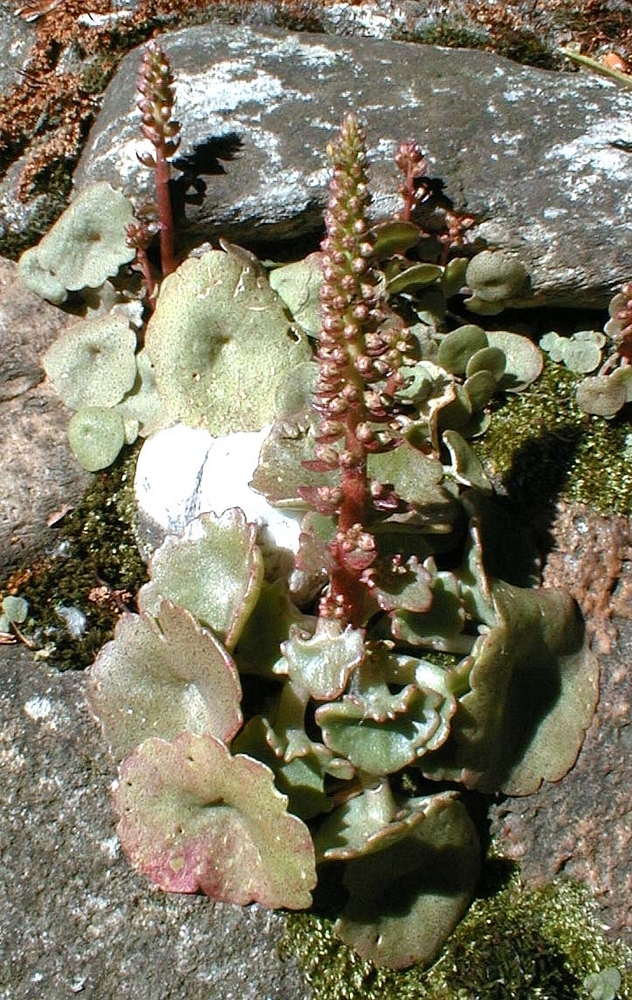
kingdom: Plantae
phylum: Tracheophyta
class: Magnoliopsida
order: Saxifragales
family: Crassulaceae
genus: Umbilicus
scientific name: Umbilicus rupestris
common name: Navelwort
